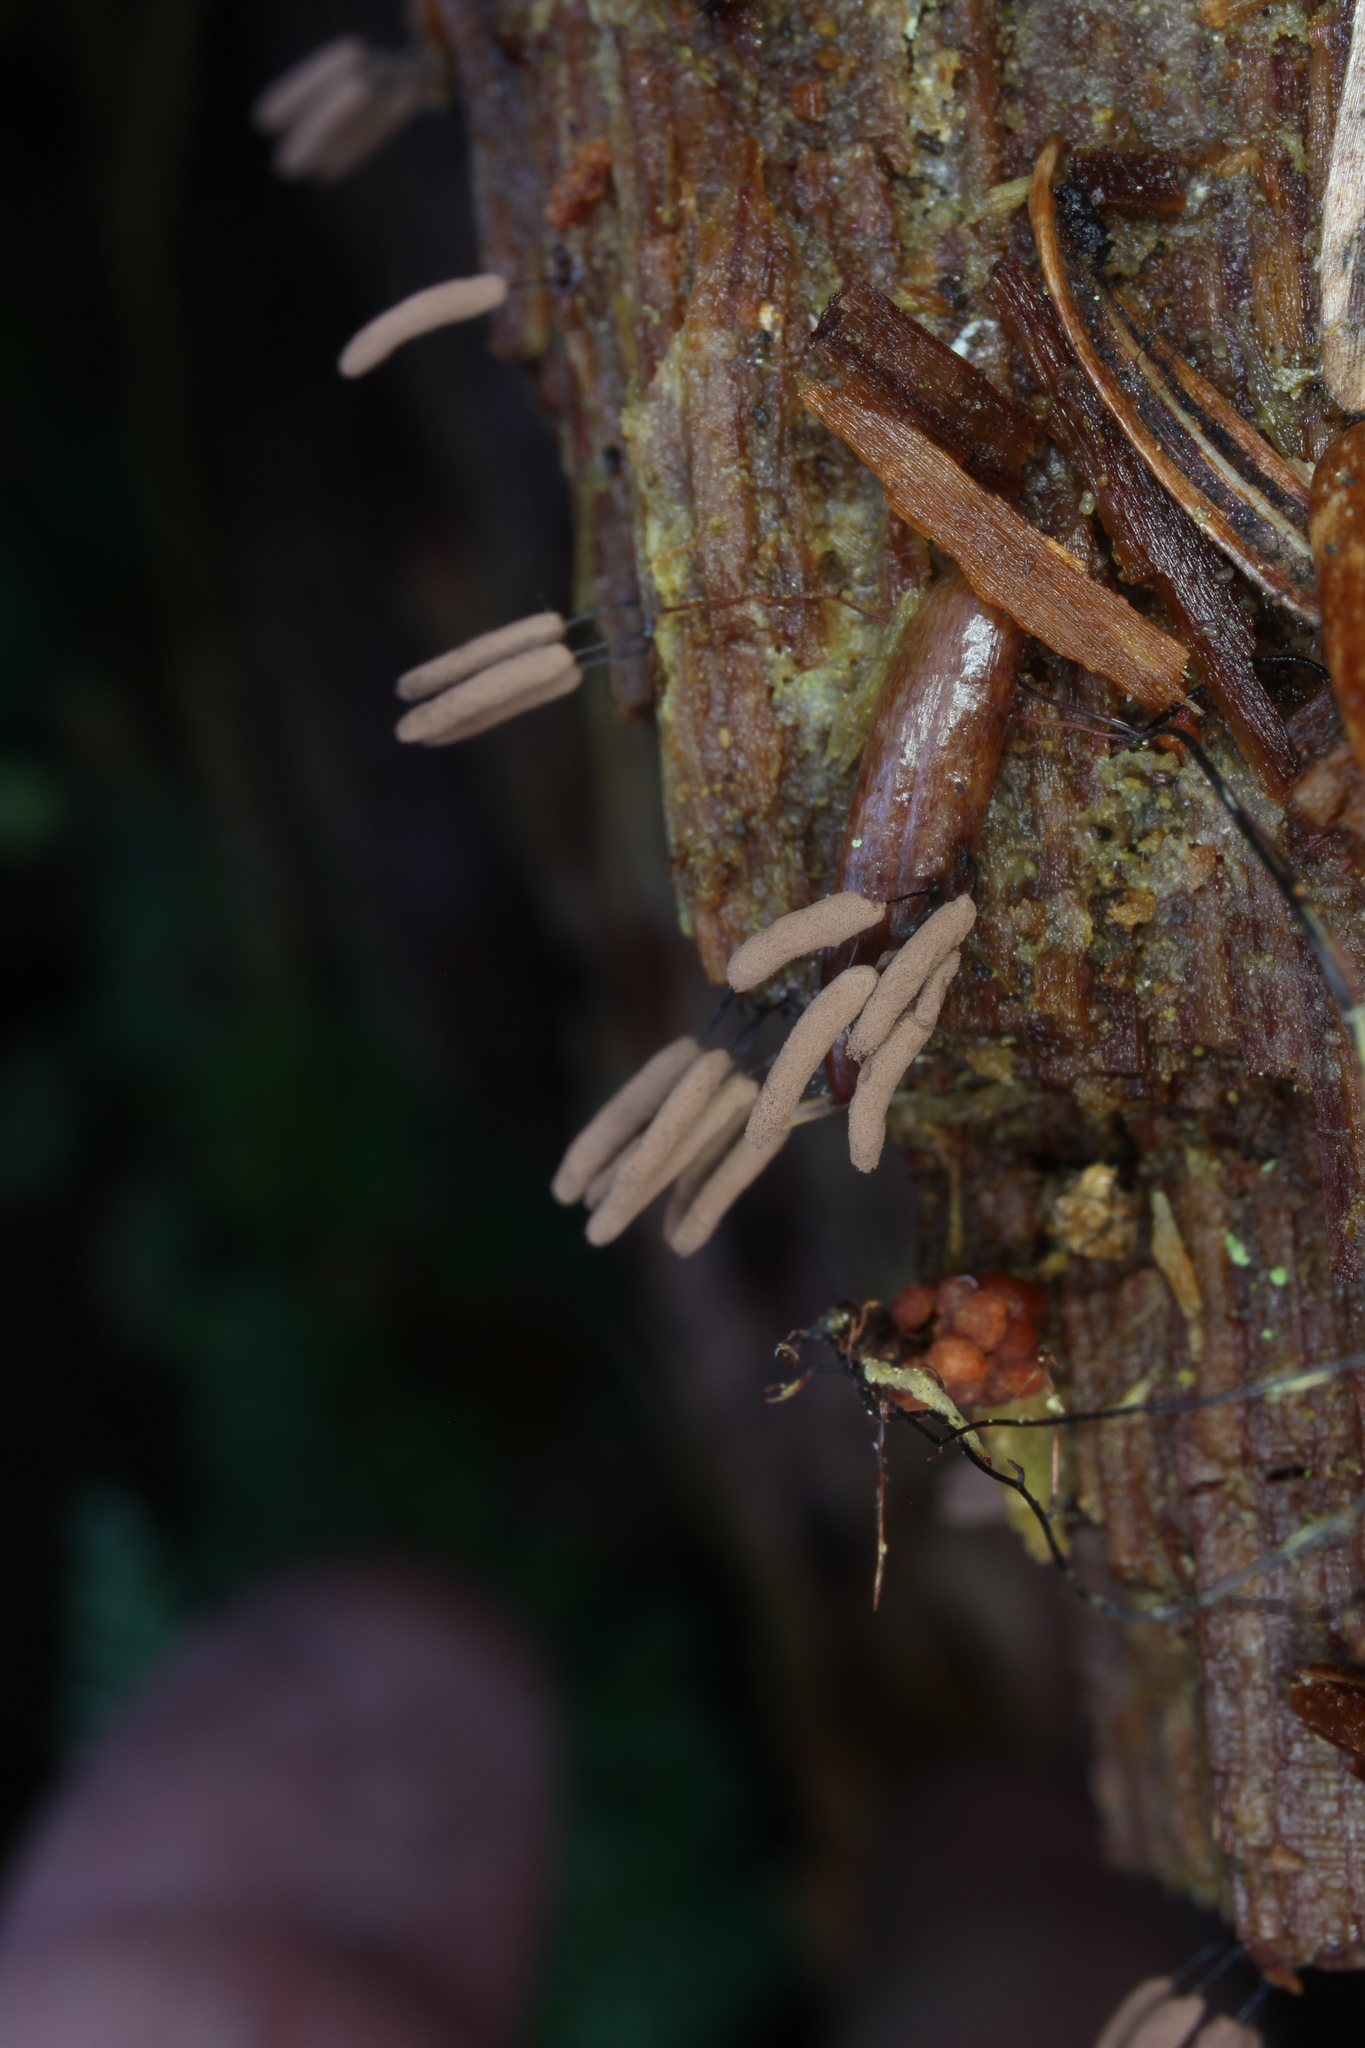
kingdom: Protozoa
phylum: Mycetozoa
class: Myxomycetes
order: Stemonitidales
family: Stemonitidaceae
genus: Stemonitis
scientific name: Stemonitis axifera
